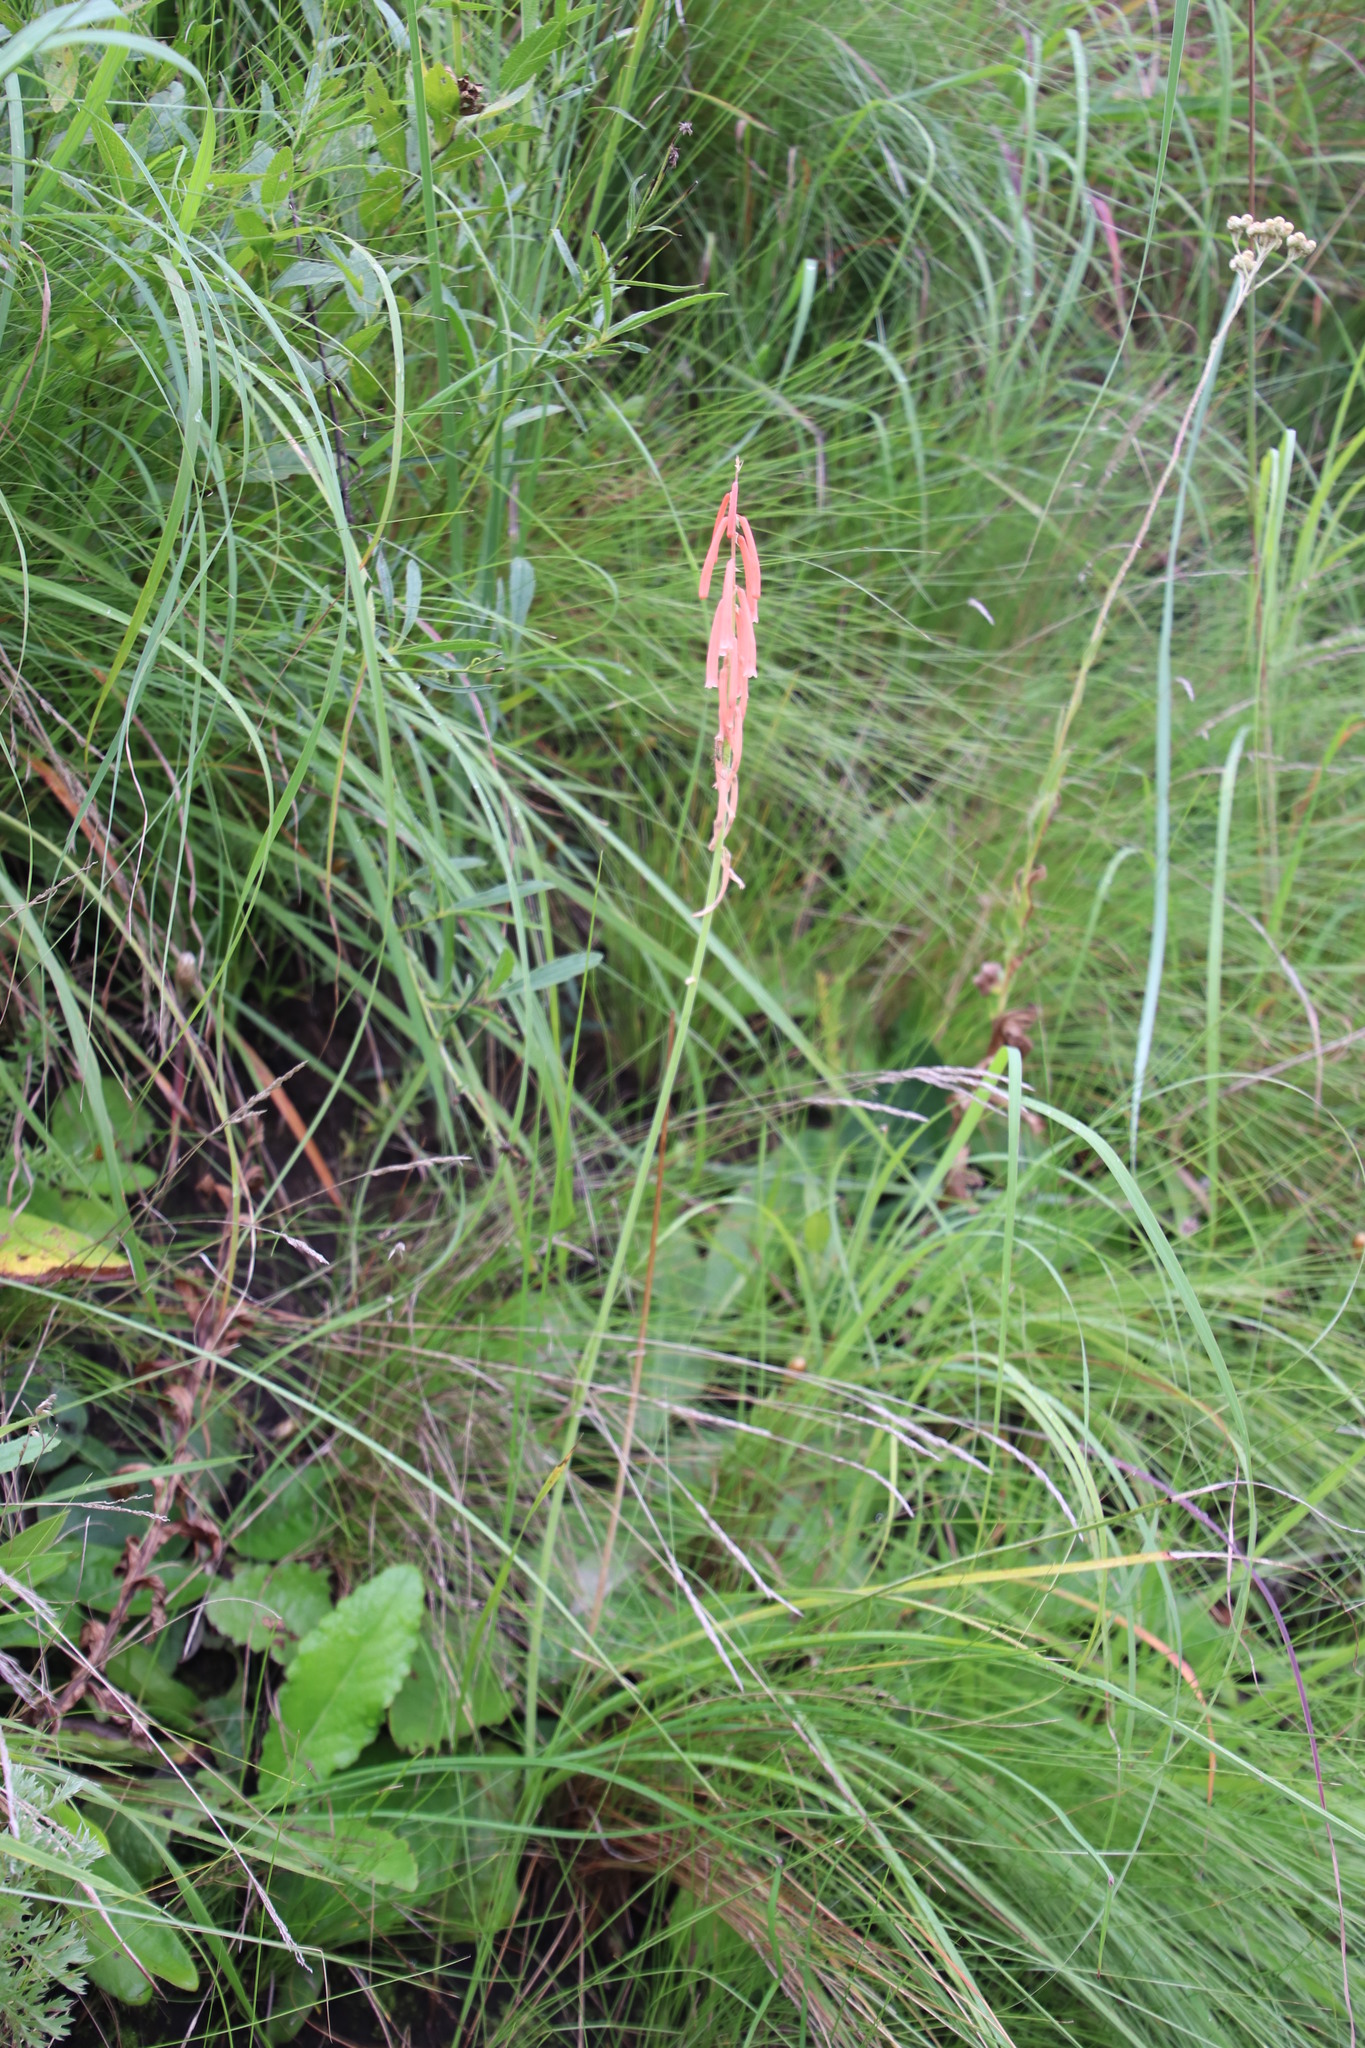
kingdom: Plantae
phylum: Tracheophyta
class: Liliopsida
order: Asparagales
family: Asphodelaceae
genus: Kniphofia
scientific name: Kniphofia angustifolia
